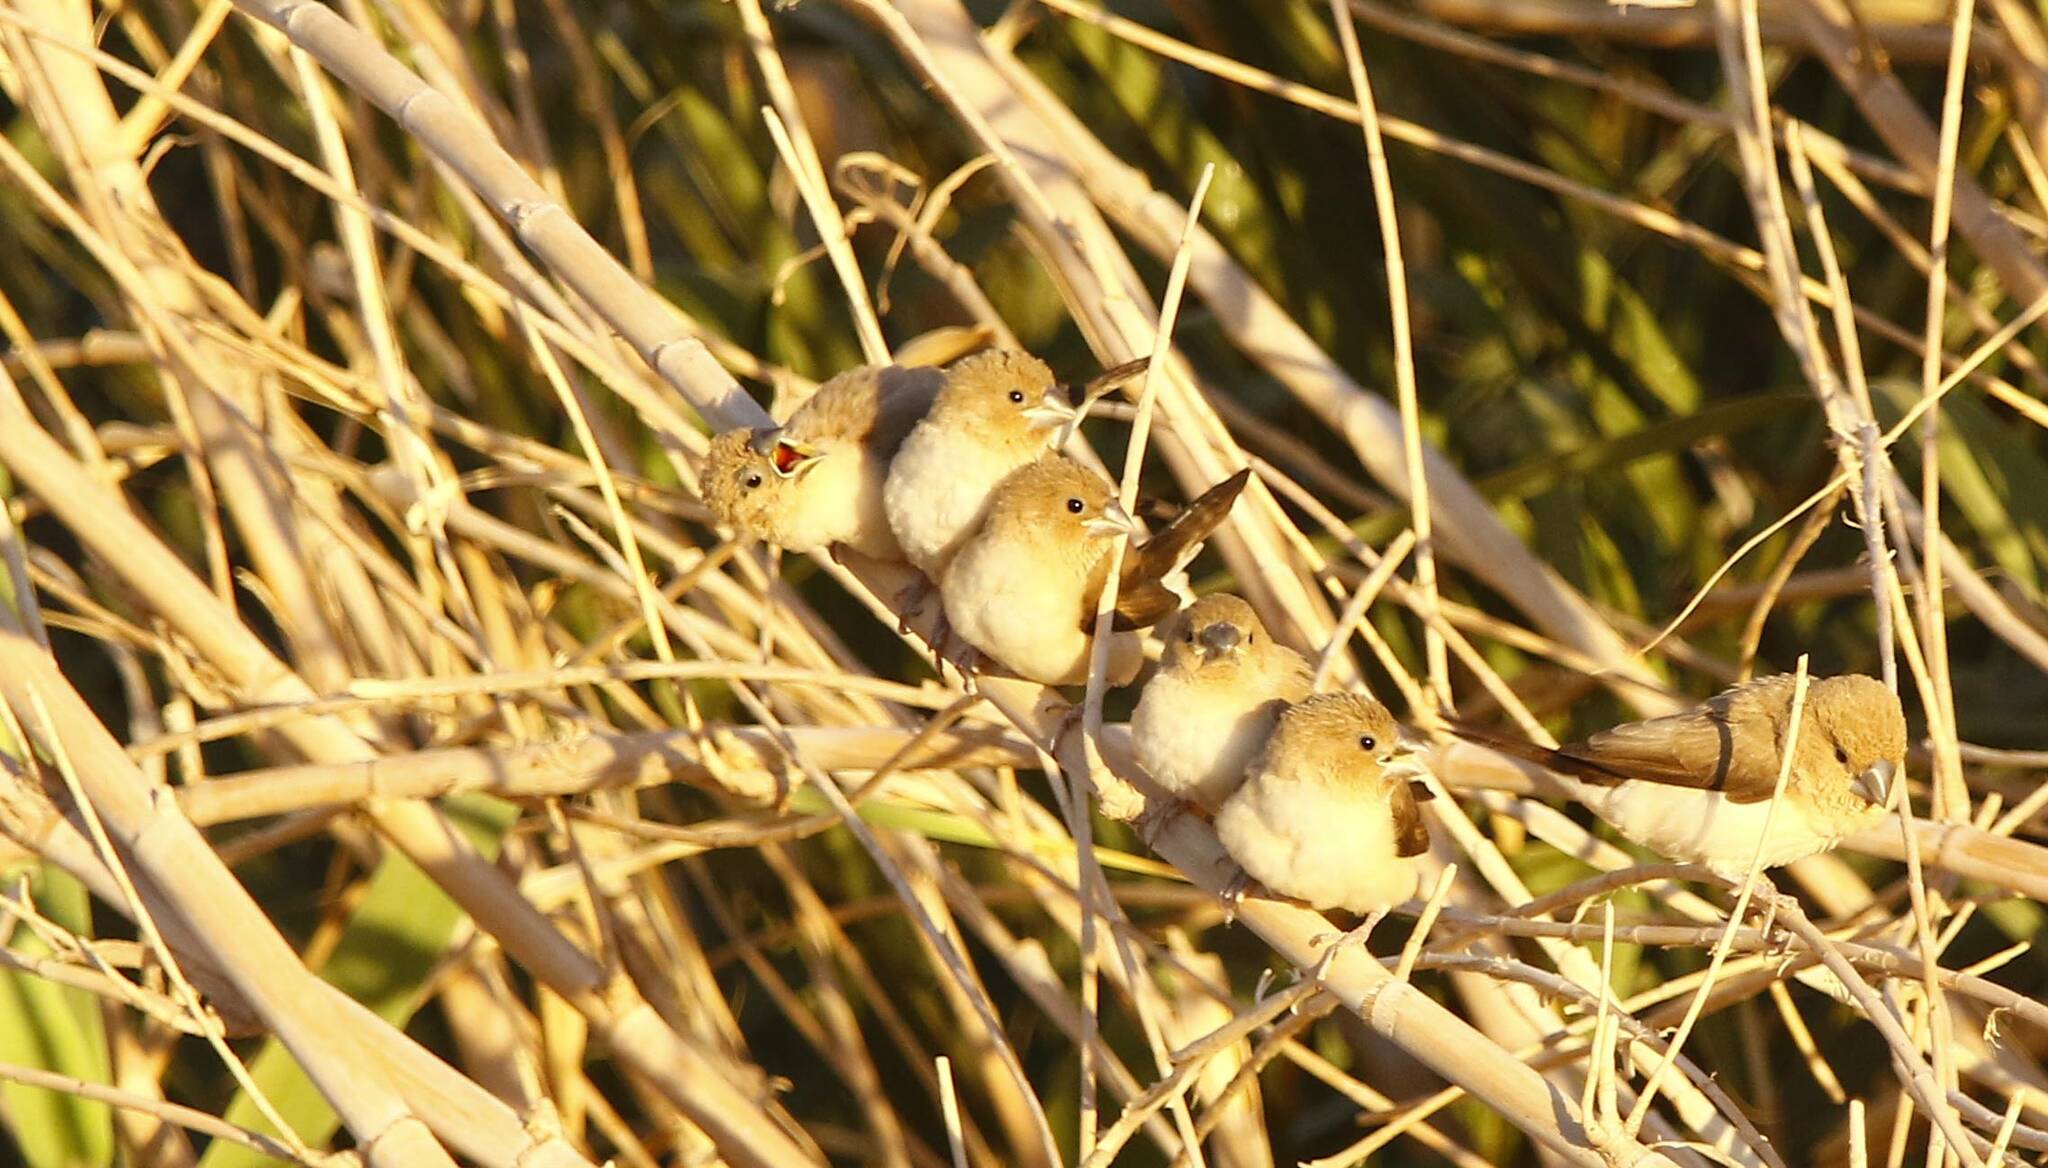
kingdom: Animalia
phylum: Chordata
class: Aves
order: Passeriformes
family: Estrildidae
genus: Euodice
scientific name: Euodice cantans
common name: African silverbill
